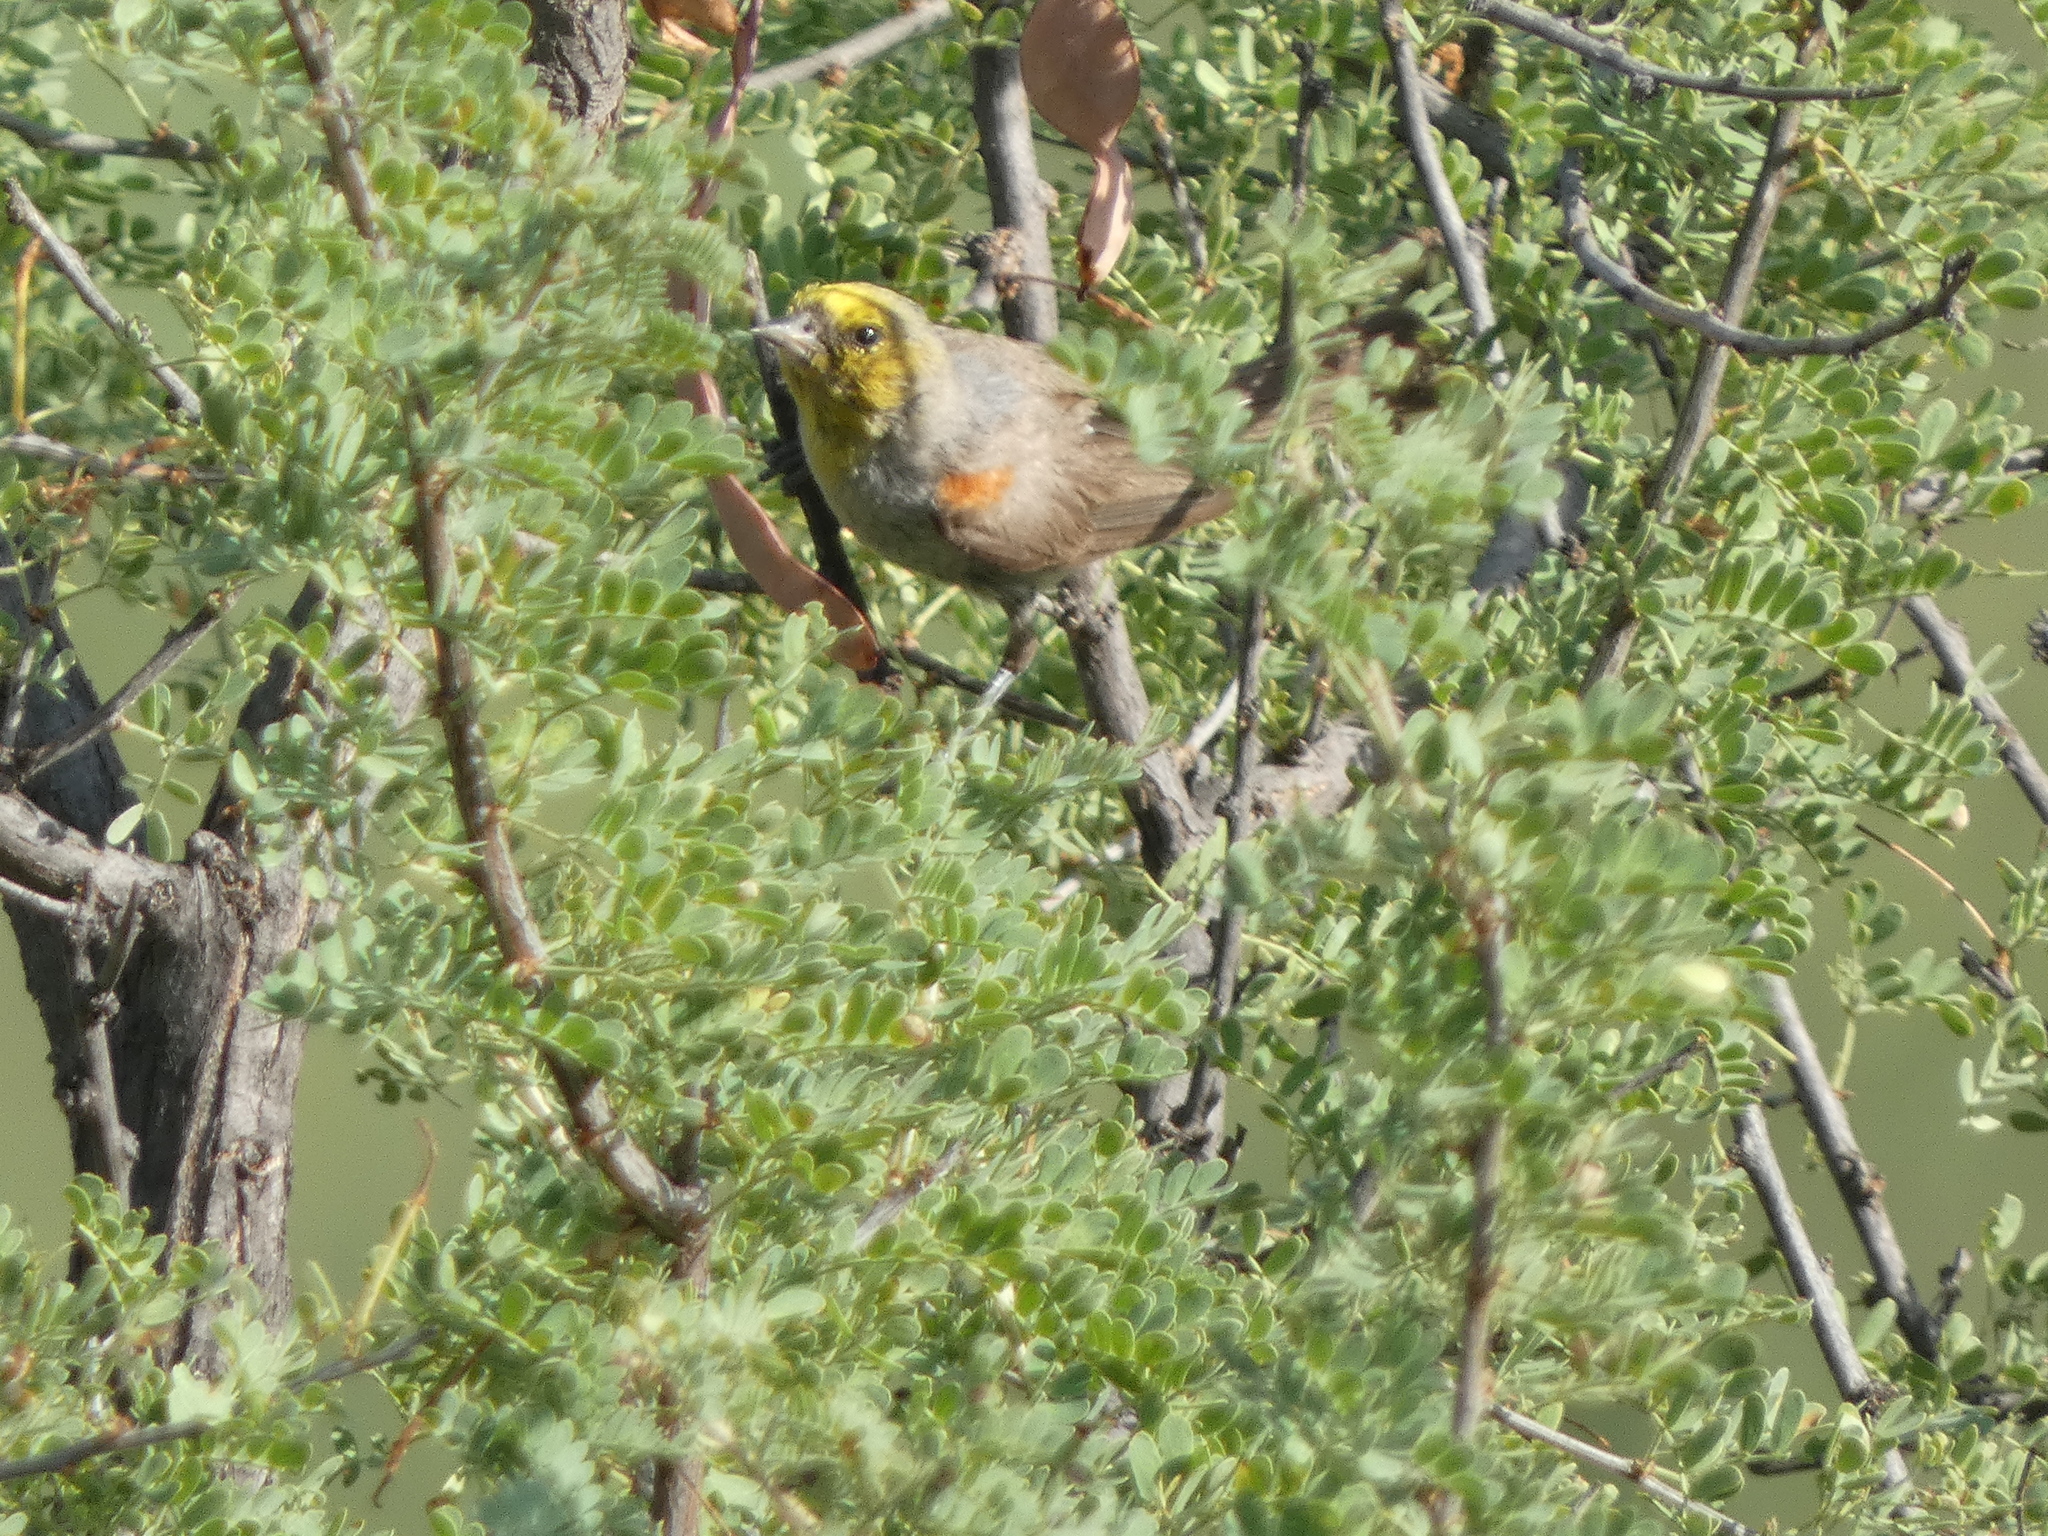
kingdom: Animalia
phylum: Chordata
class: Aves
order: Passeriformes
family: Remizidae
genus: Auriparus
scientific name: Auriparus flaviceps
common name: Verdin
